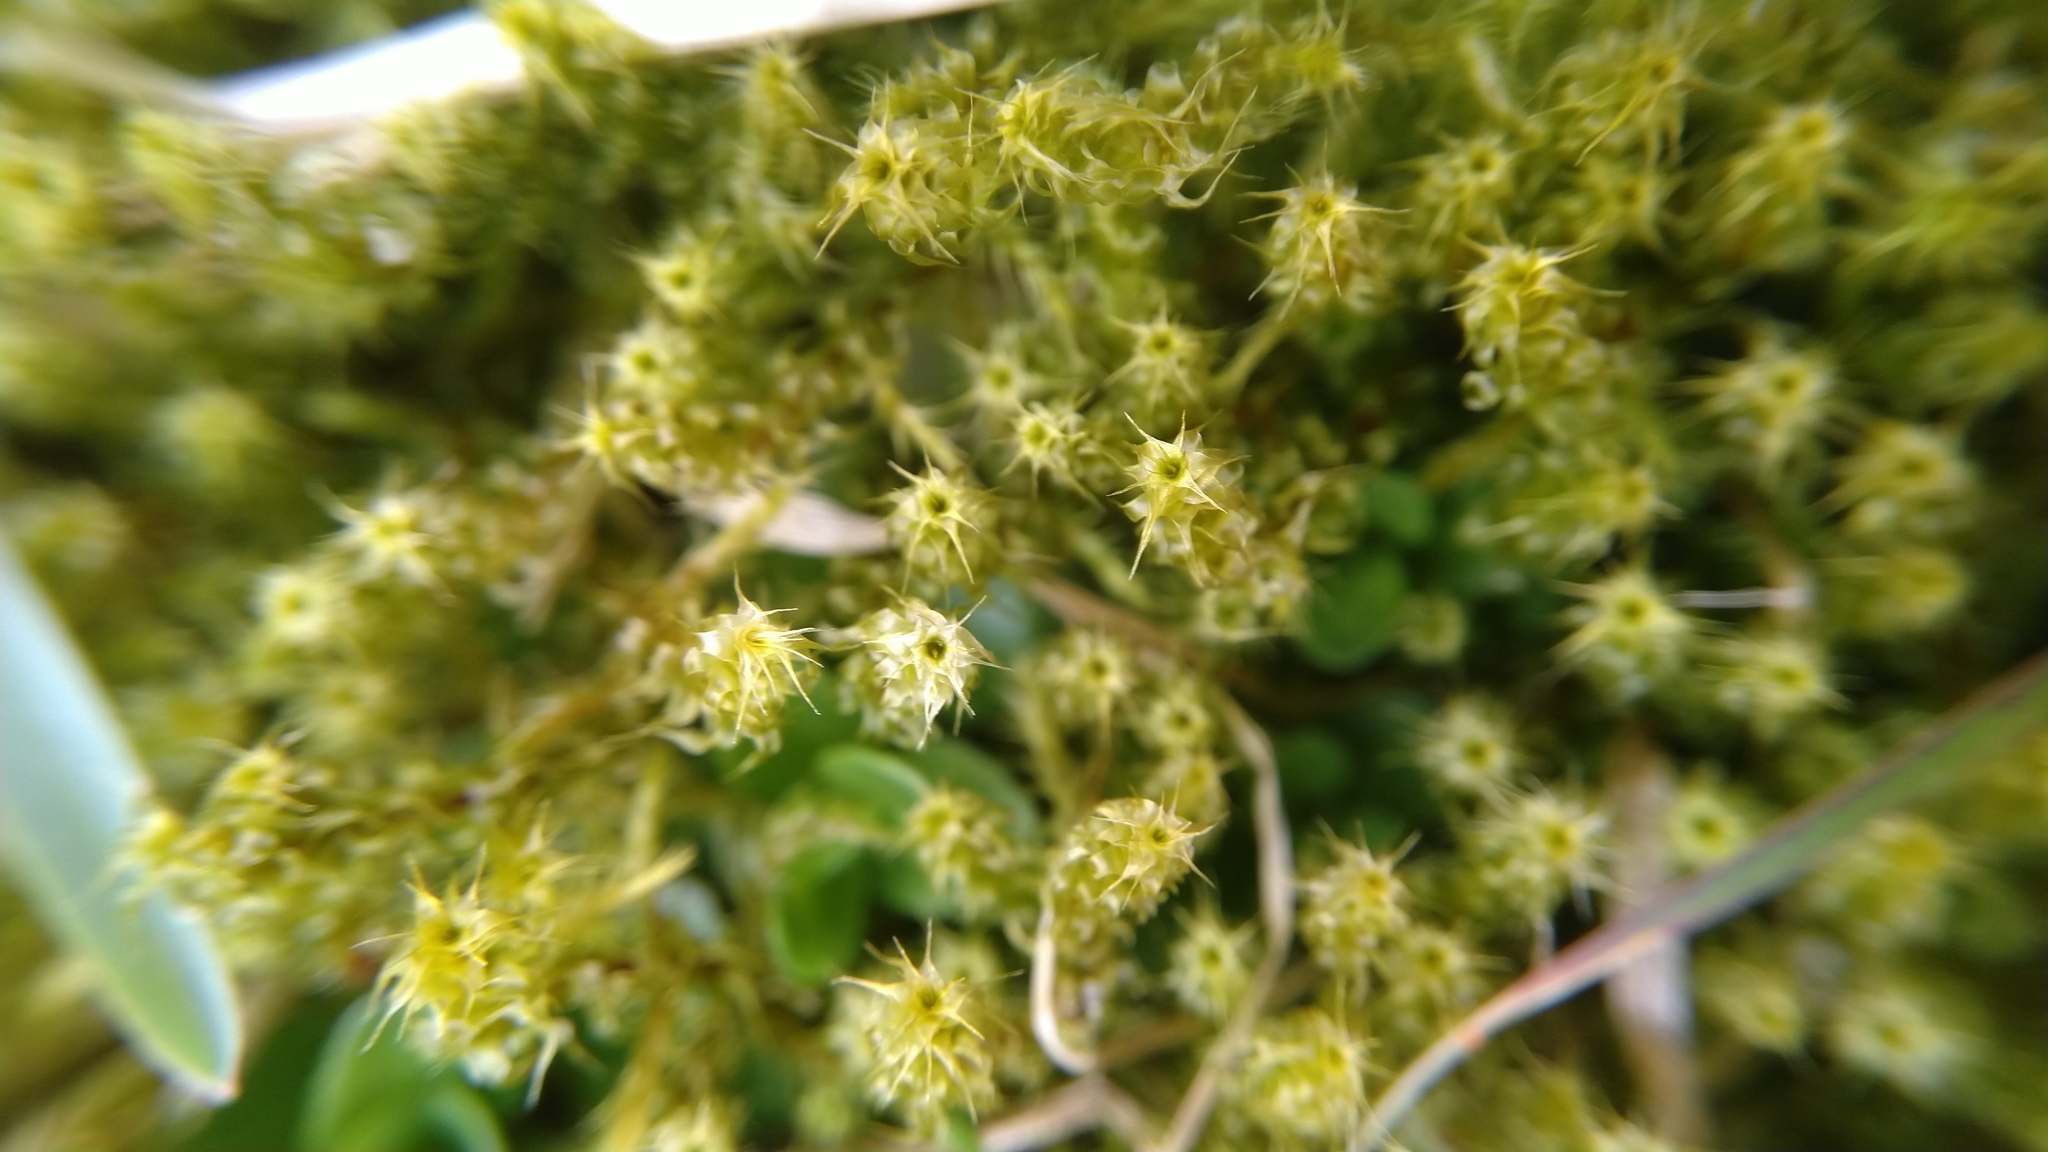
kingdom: Plantae
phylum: Bryophyta
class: Bryopsida
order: Hypnales
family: Hylocomiaceae
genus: Rhytidiadelphus
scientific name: Rhytidiadelphus squarrosus
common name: Springy turf-moss
